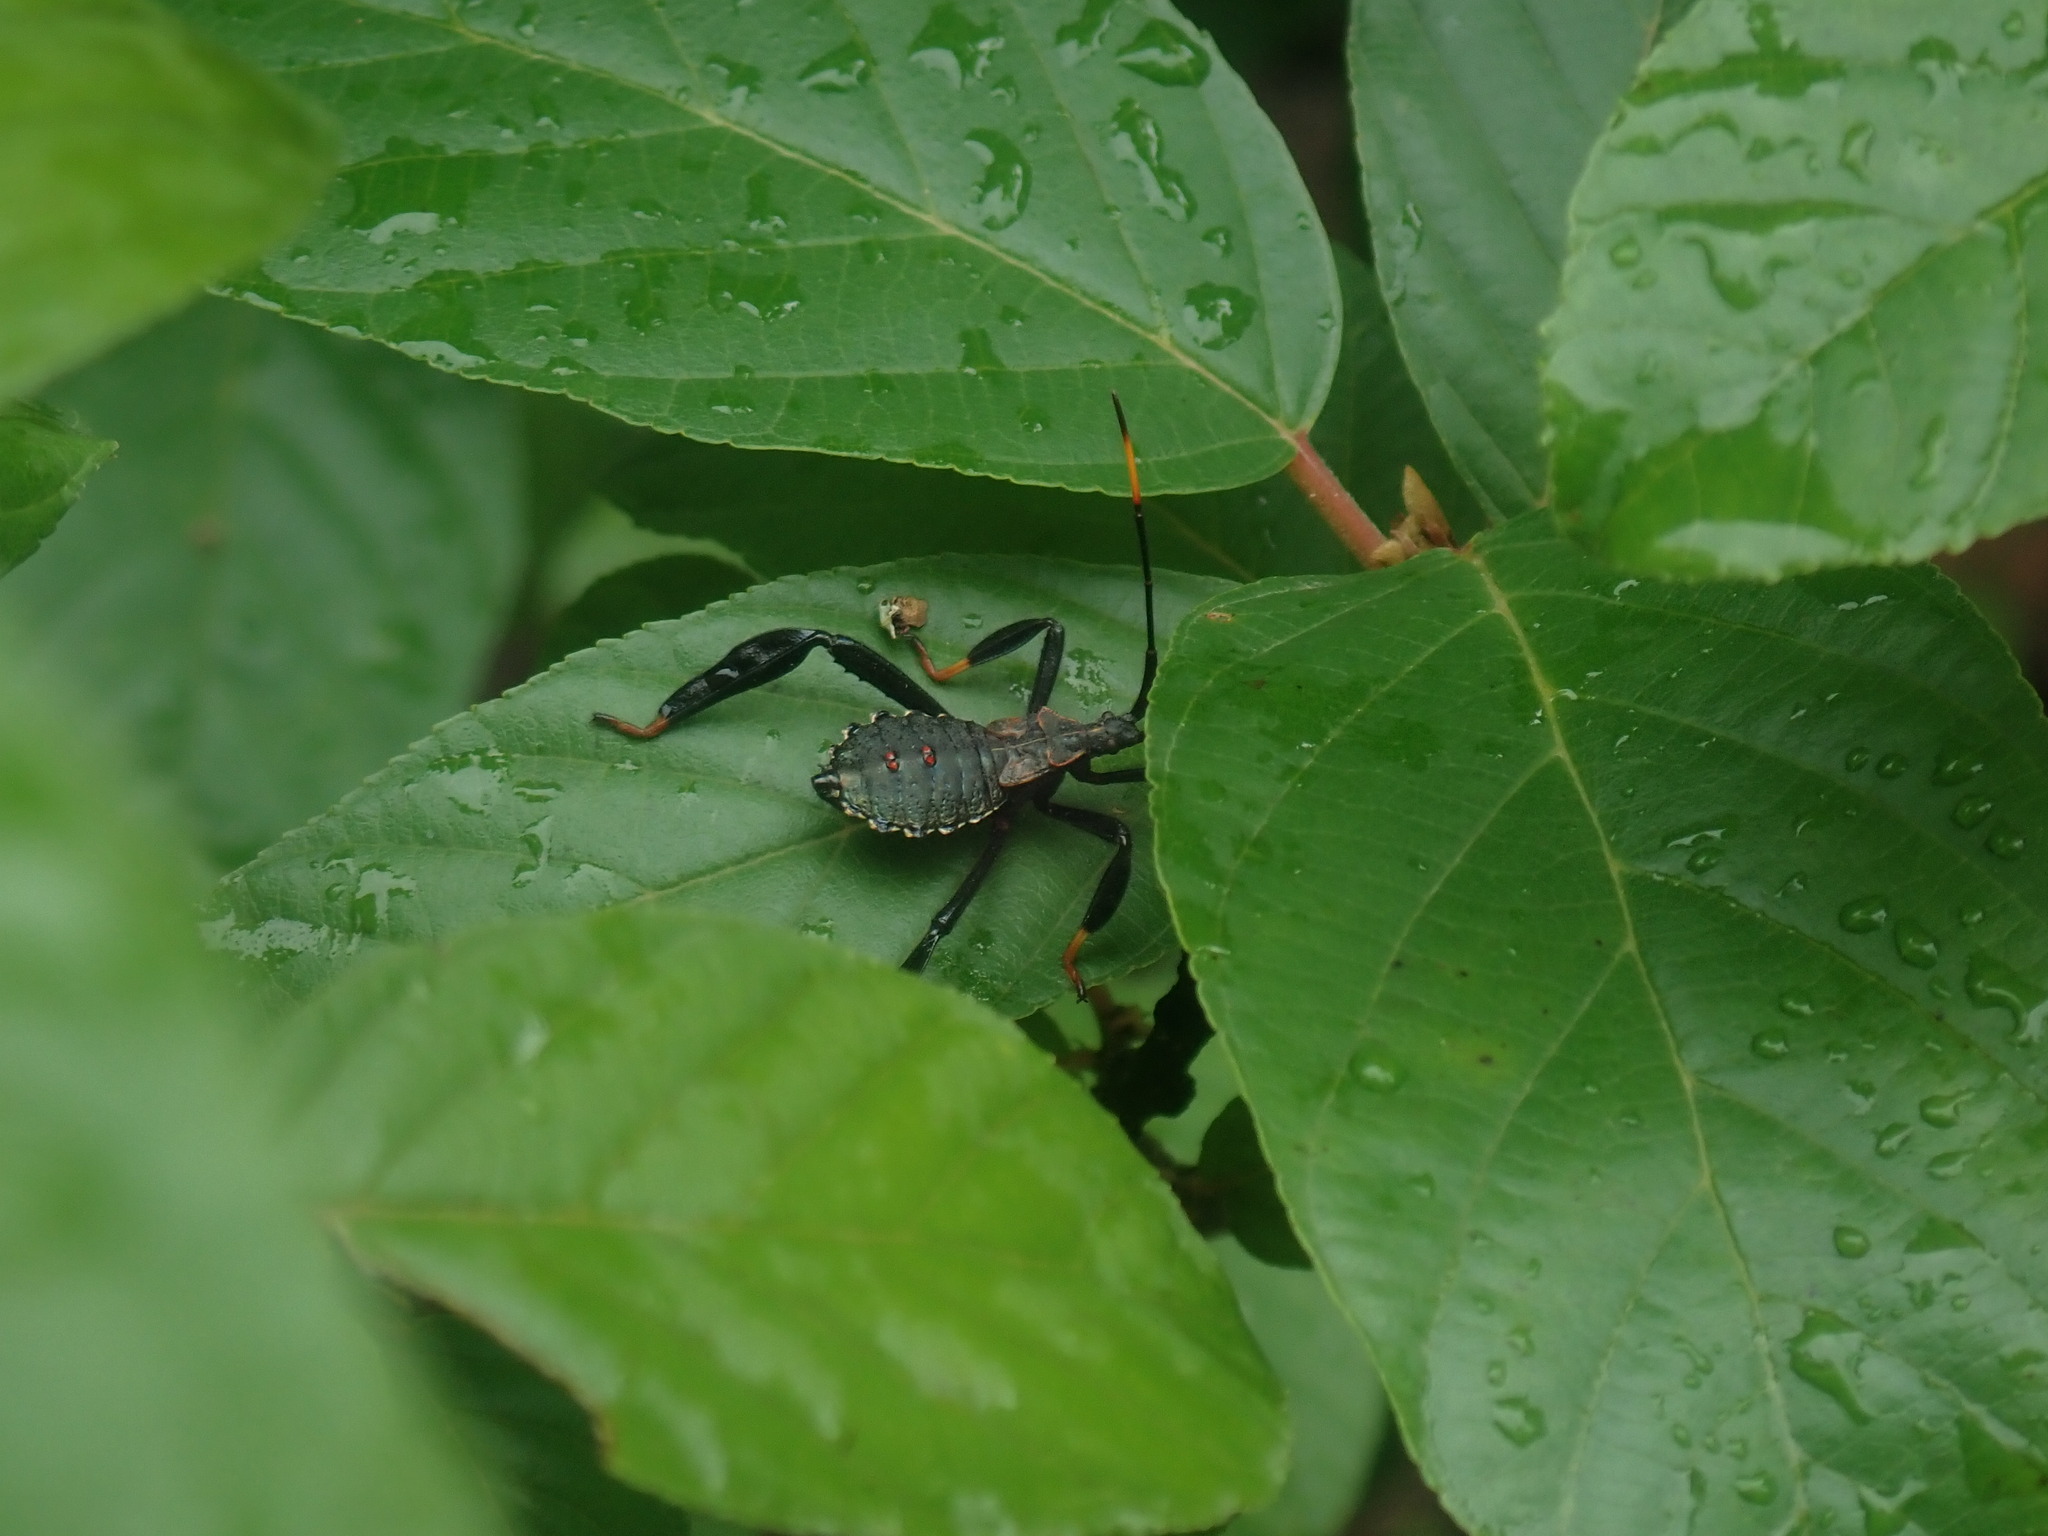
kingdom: Animalia
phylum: Arthropoda
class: Insecta
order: Hemiptera
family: Coreidae
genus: Acanthocephala
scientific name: Acanthocephala thomasi
